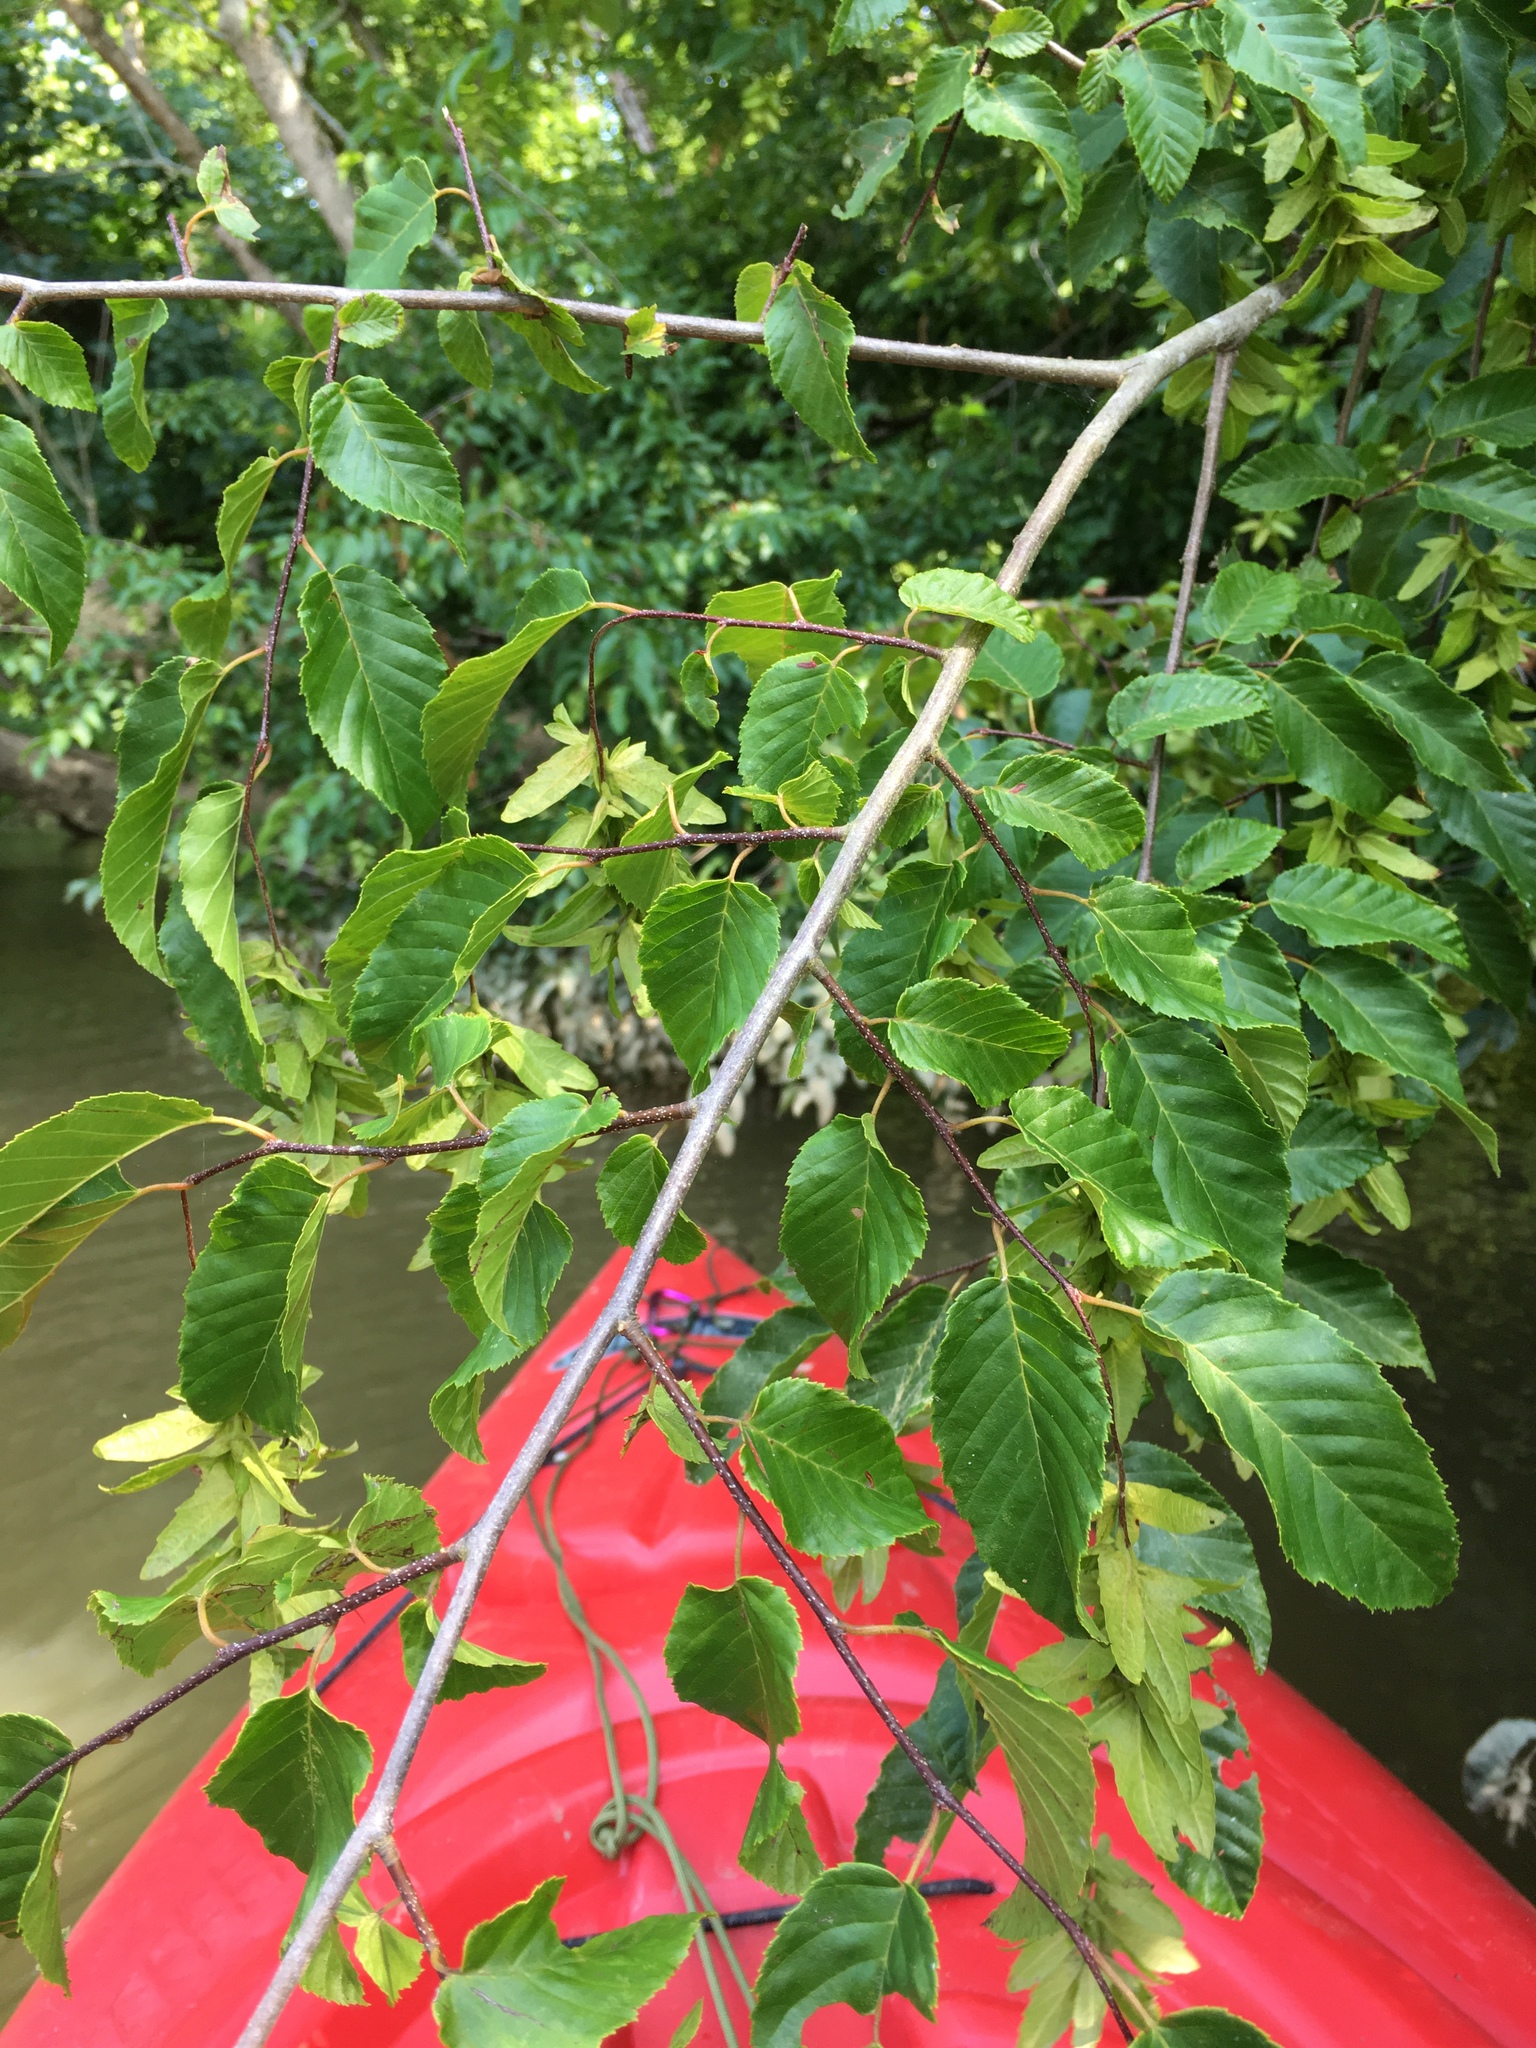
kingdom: Plantae
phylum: Tracheophyta
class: Magnoliopsida
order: Fagales
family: Betulaceae
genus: Carpinus
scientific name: Carpinus caroliniana
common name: American hornbeam
